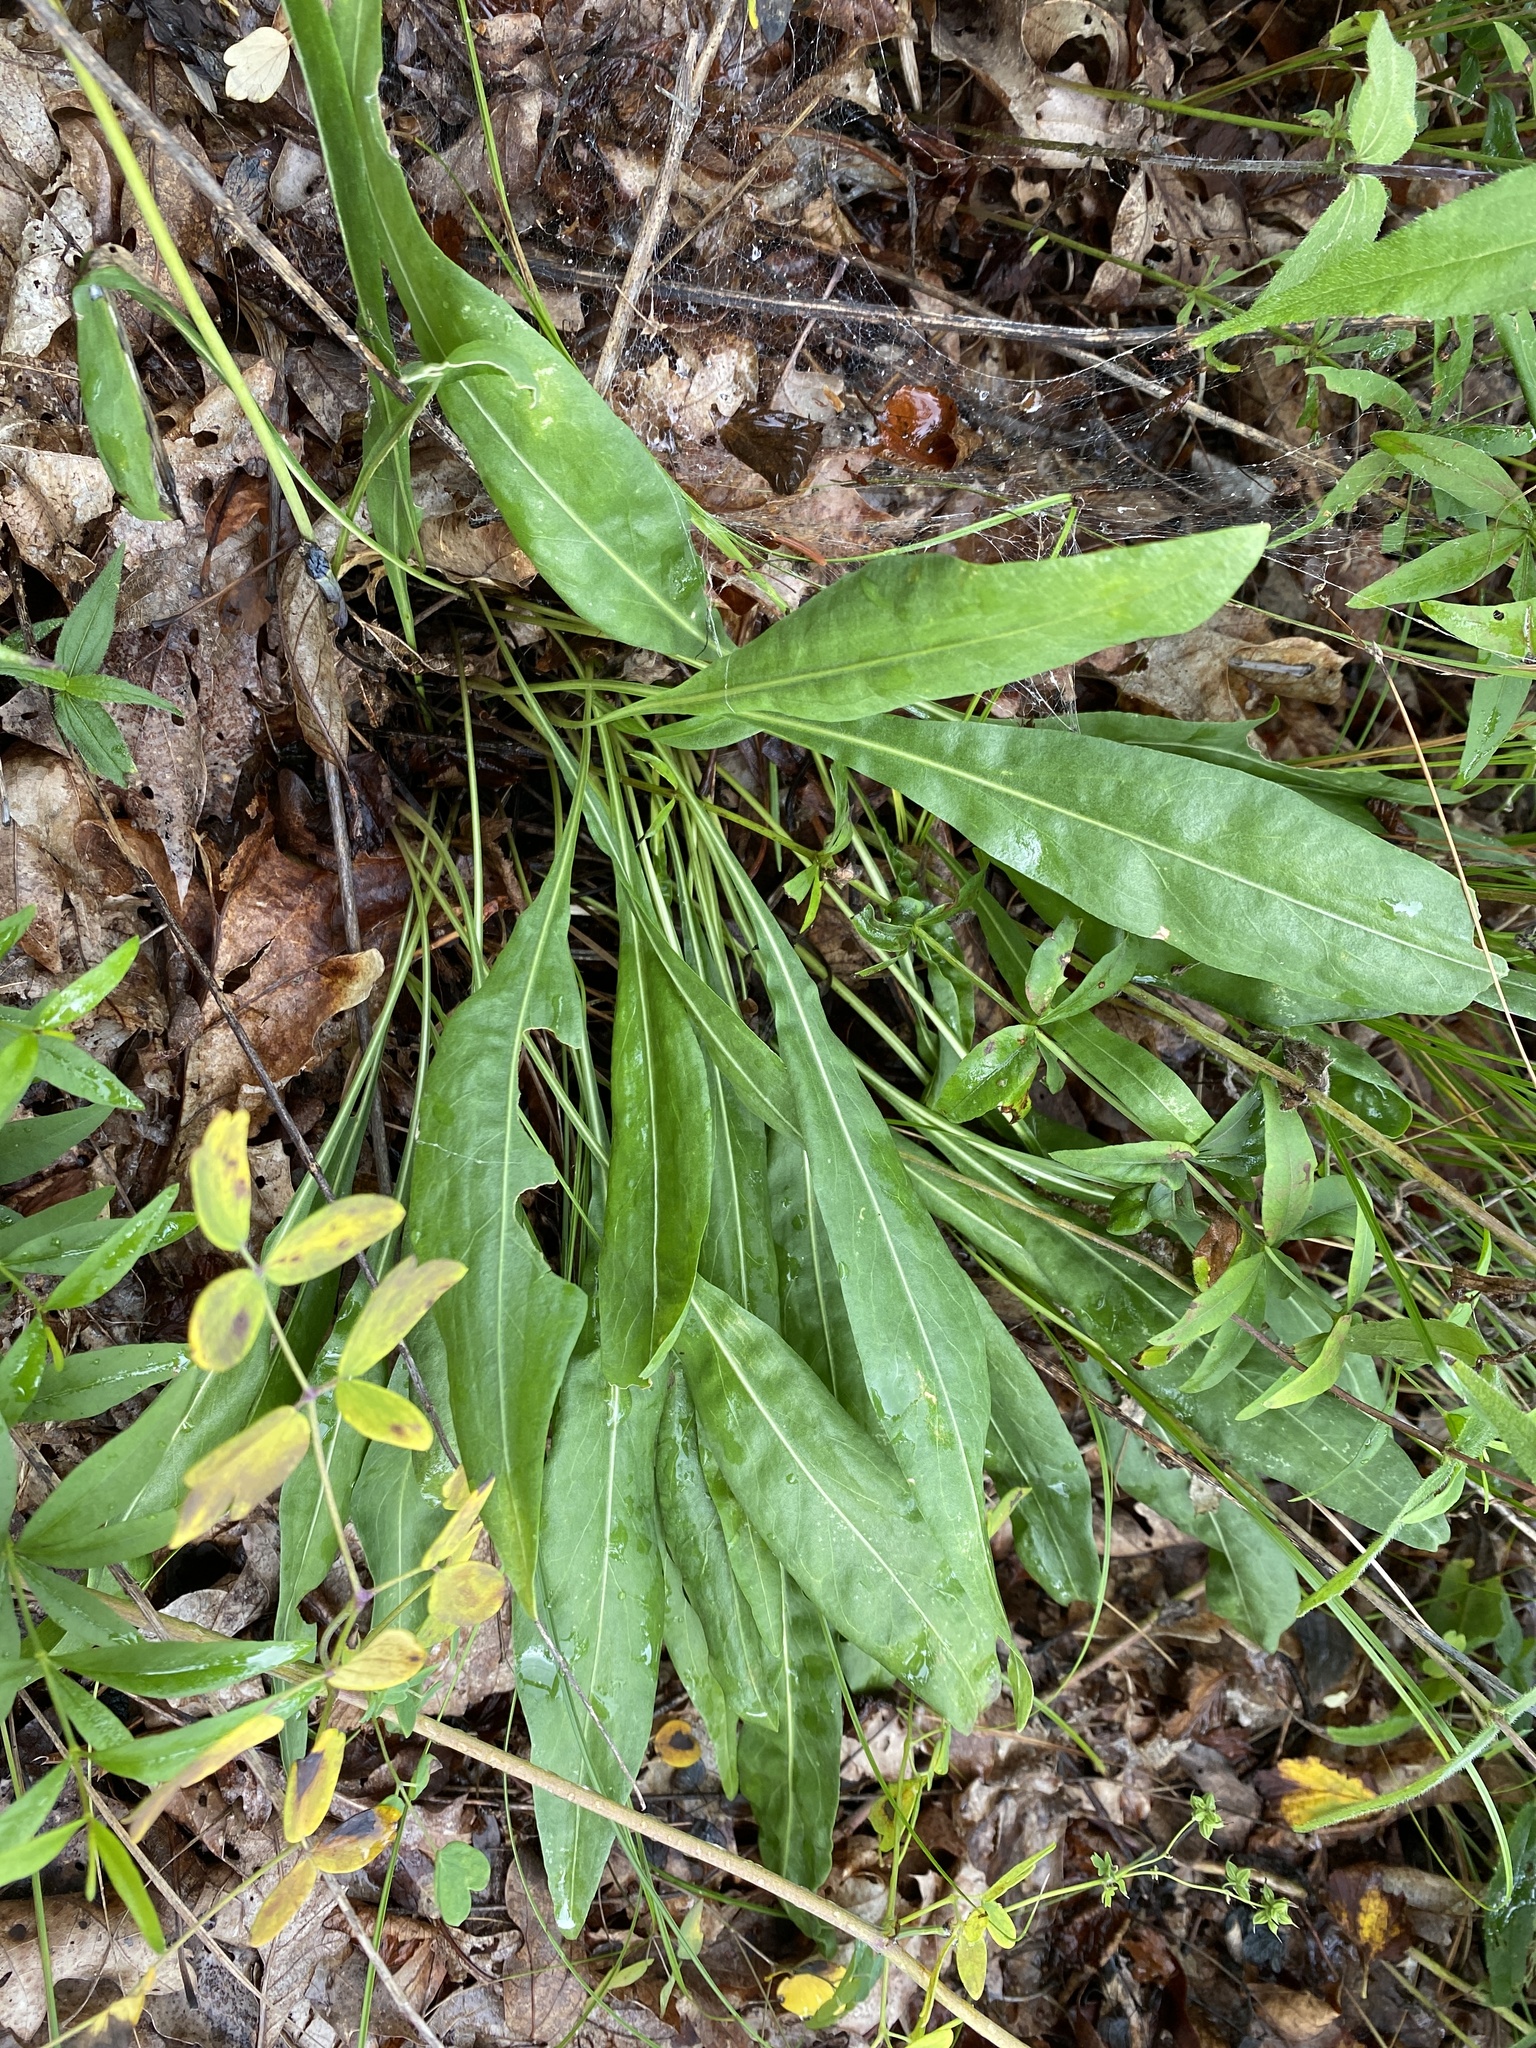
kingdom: Plantae
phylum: Tracheophyta
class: Magnoliopsida
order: Asterales
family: Asteraceae
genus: Liatris
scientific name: Liatris aspera
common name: Lacerate blazing-star
